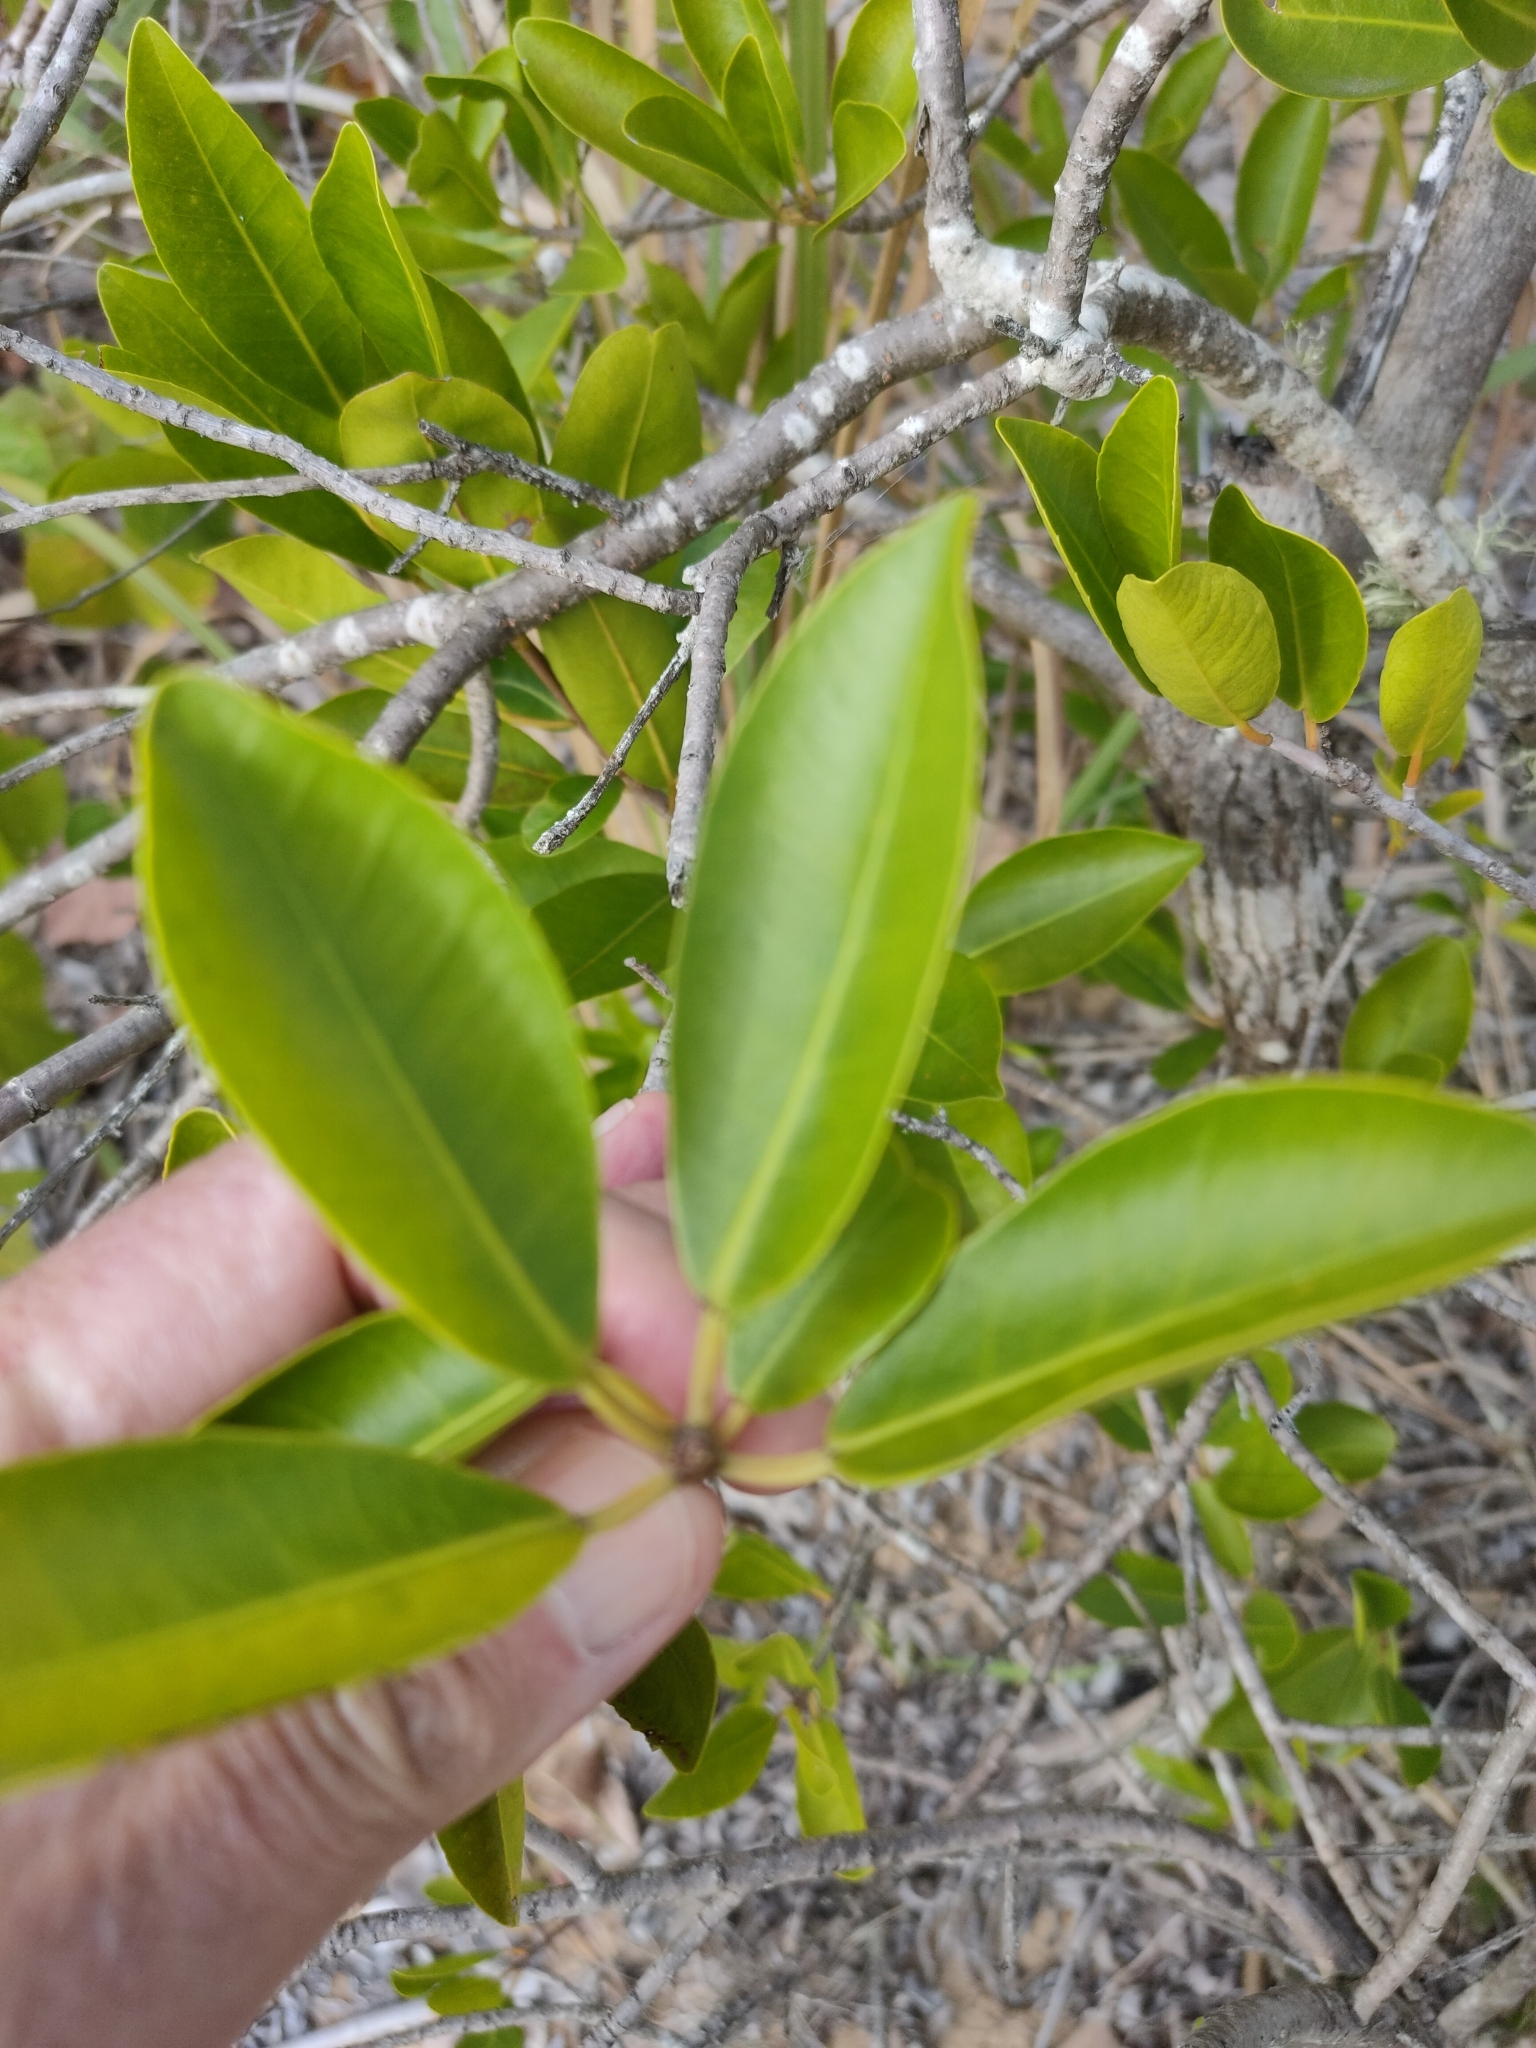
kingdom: Plantae
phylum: Tracheophyta
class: Magnoliopsida
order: Malpighiales
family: Euphorbiaceae
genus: Excoecaria
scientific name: Excoecaria agallocha
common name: River poisontree
